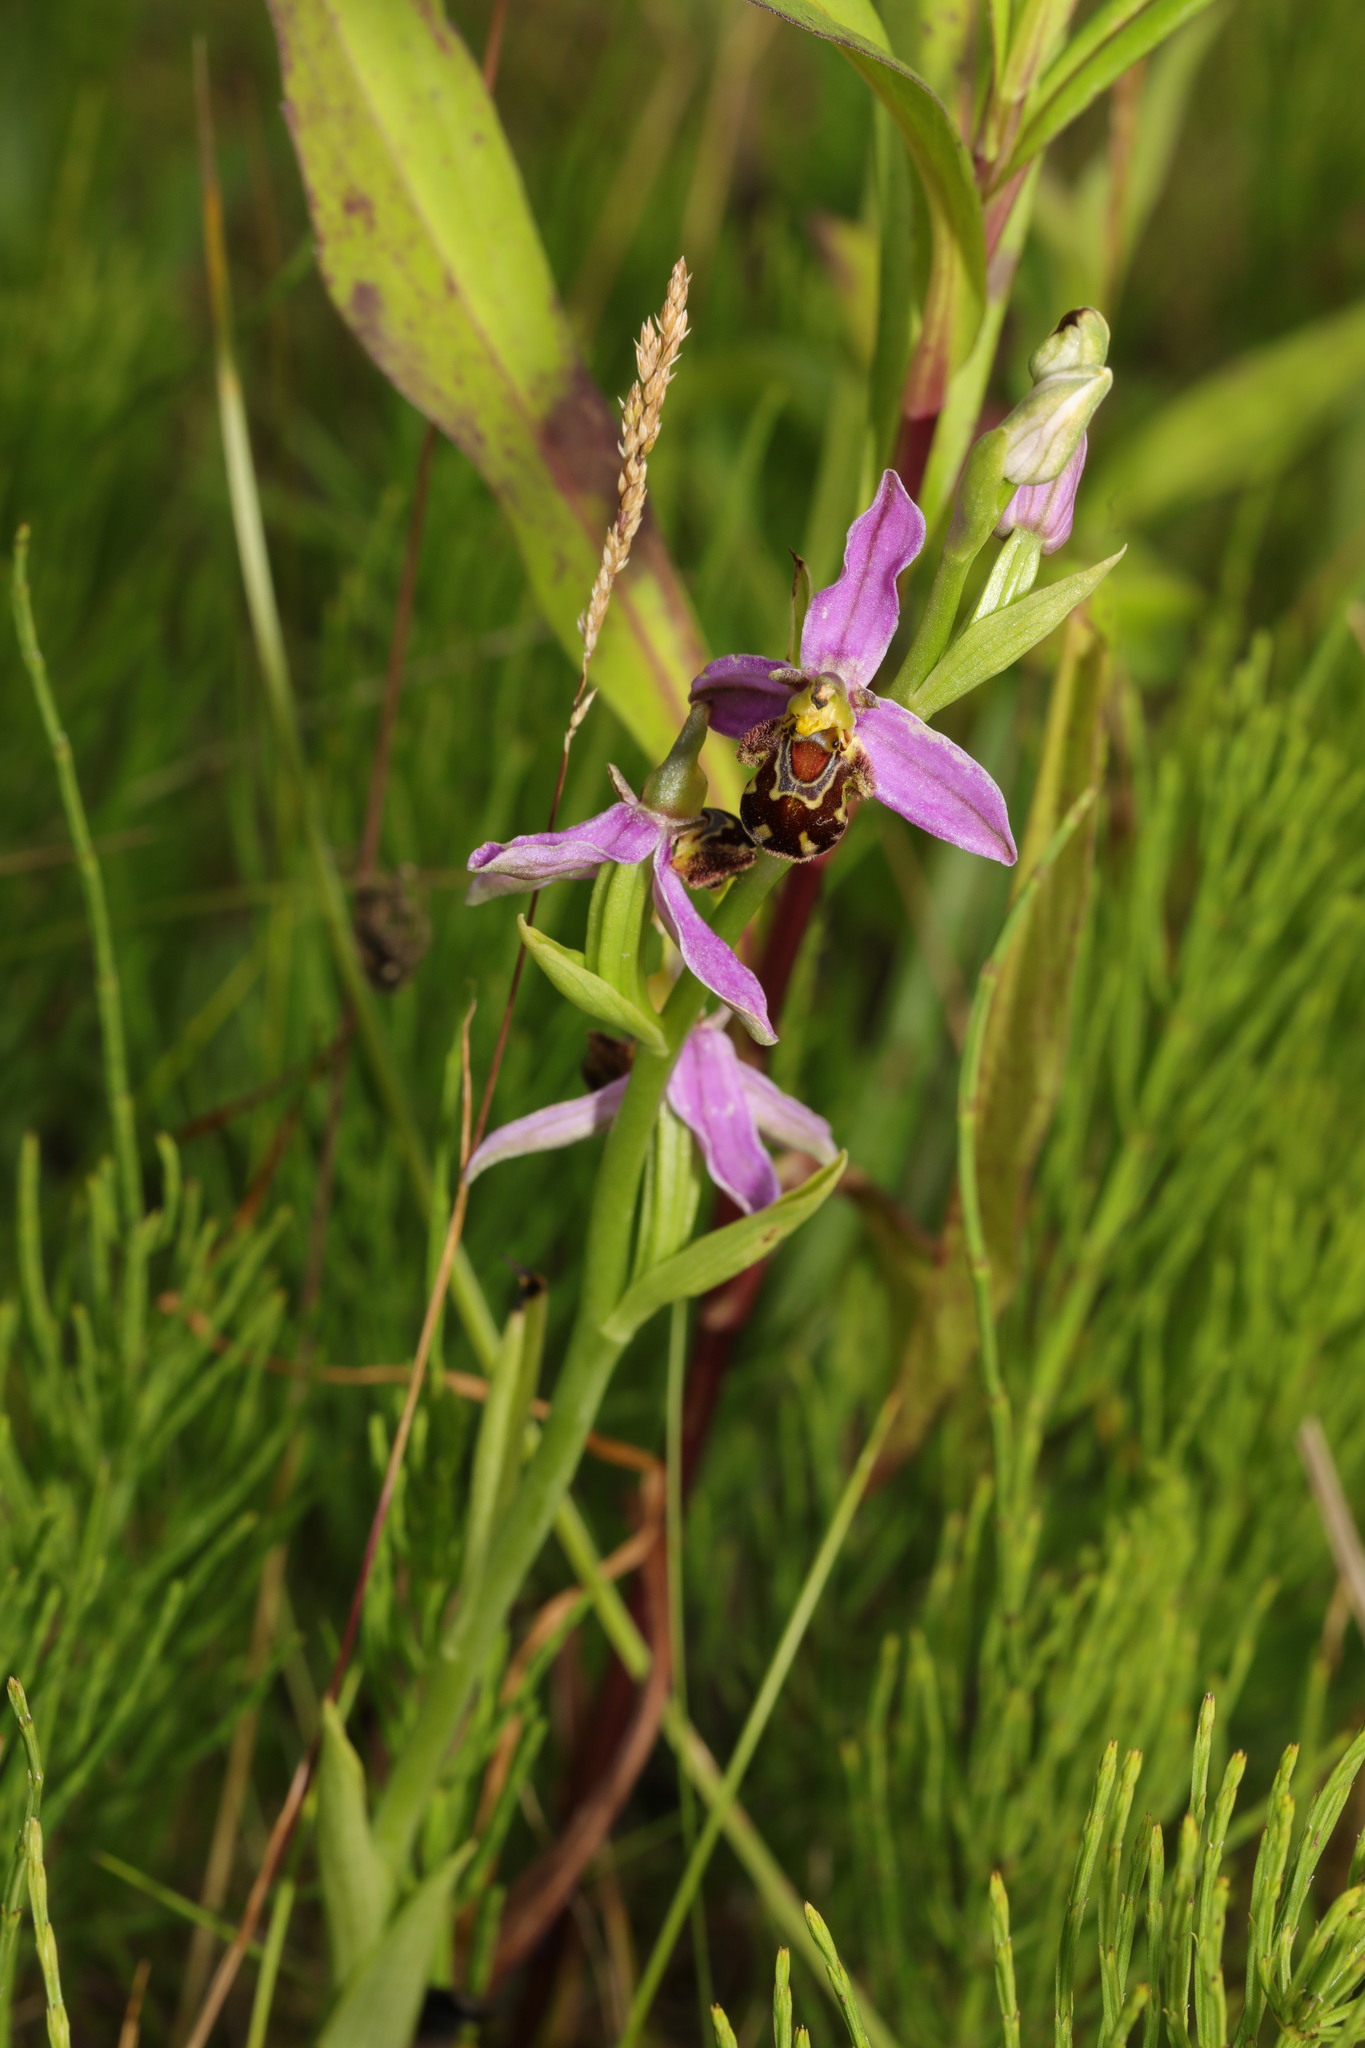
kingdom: Plantae
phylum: Tracheophyta
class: Liliopsida
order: Asparagales
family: Orchidaceae
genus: Ophrys
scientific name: Ophrys apifera
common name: Bee orchid
